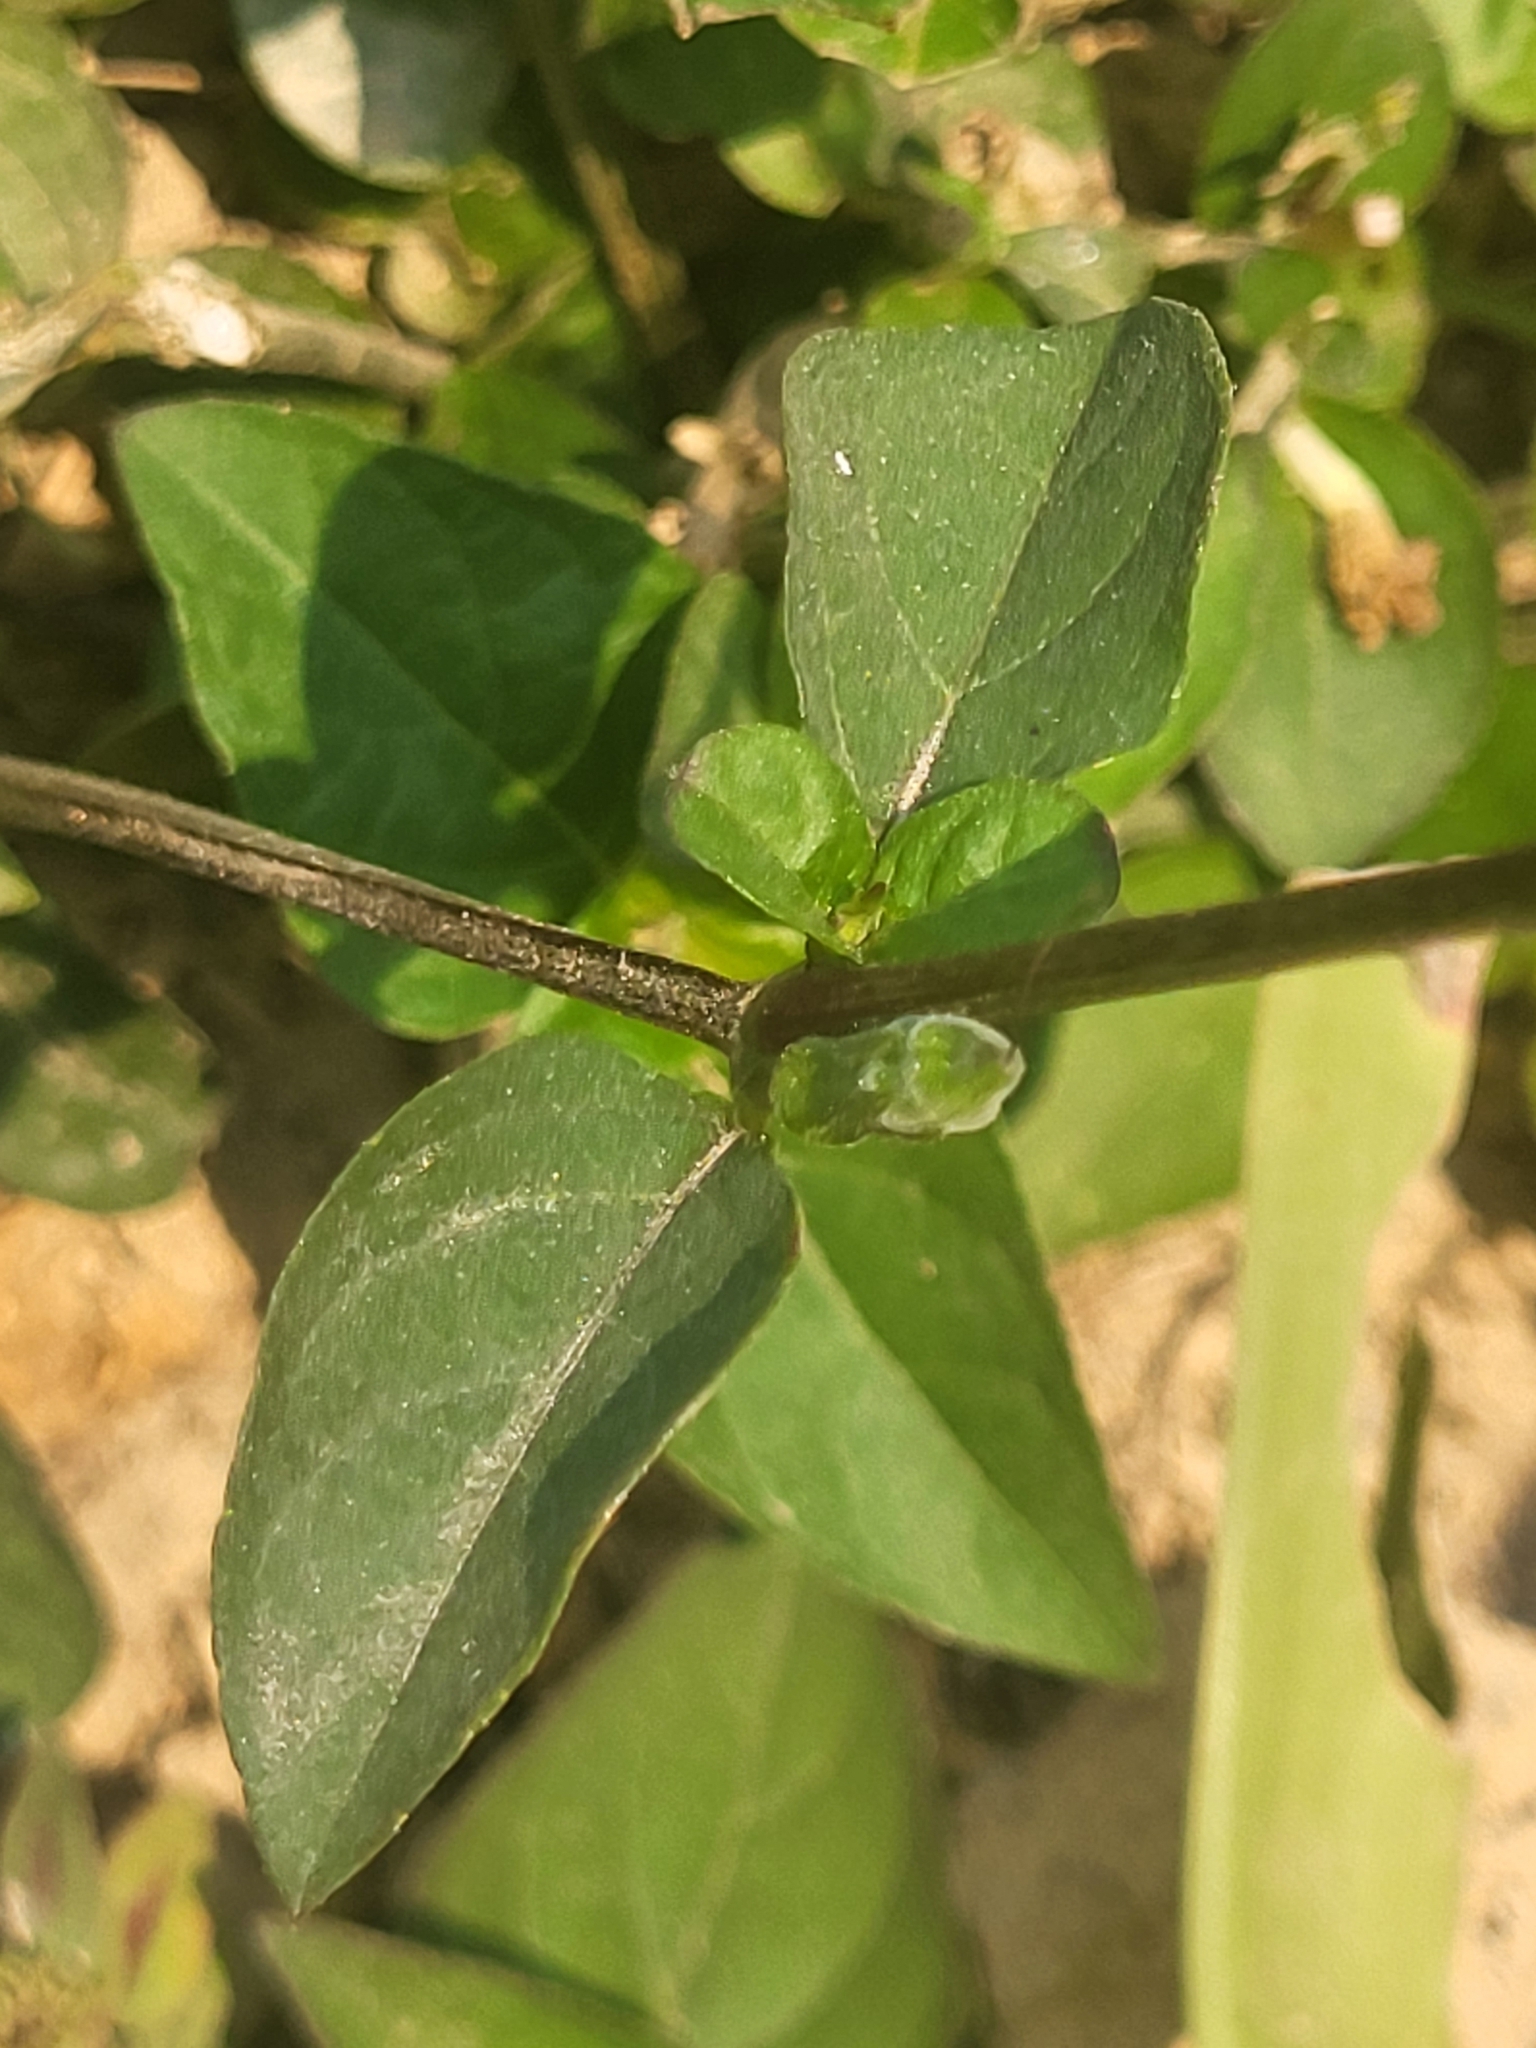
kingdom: Plantae
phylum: Tracheophyta
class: Magnoliopsida
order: Lamiales
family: Acanthaceae
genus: Asystasia
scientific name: Asystasia intrusa
